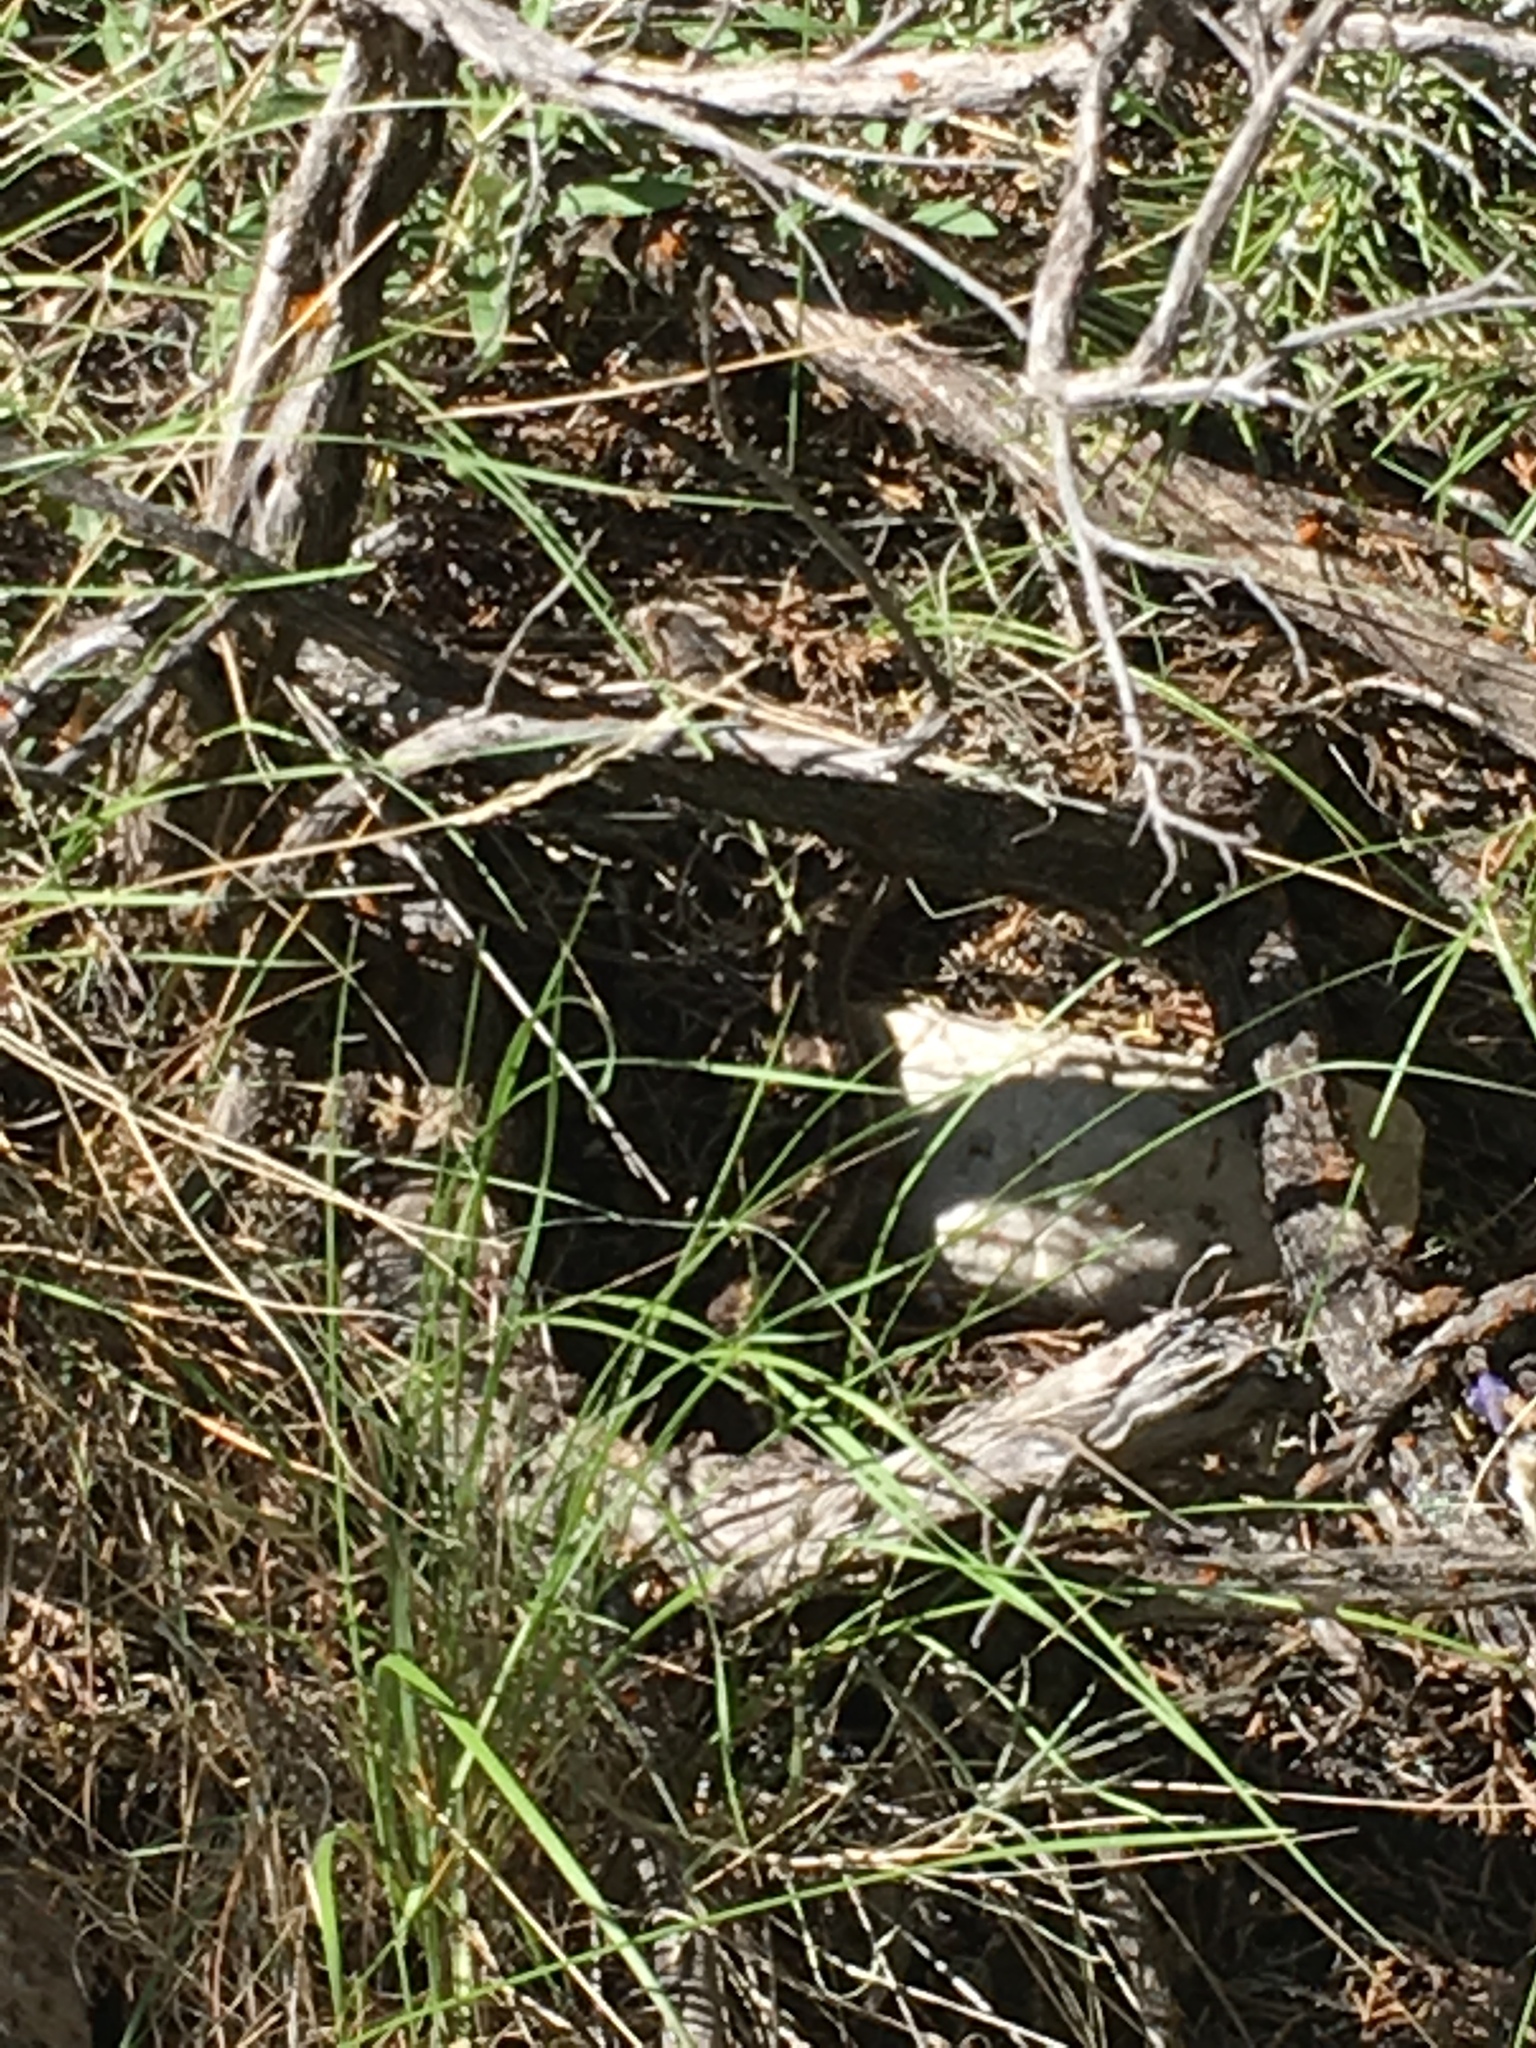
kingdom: Animalia
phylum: Chordata
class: Squamata
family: Colubridae
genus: Thamnophis
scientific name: Thamnophis elegans
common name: Western terrestrial garter snake
